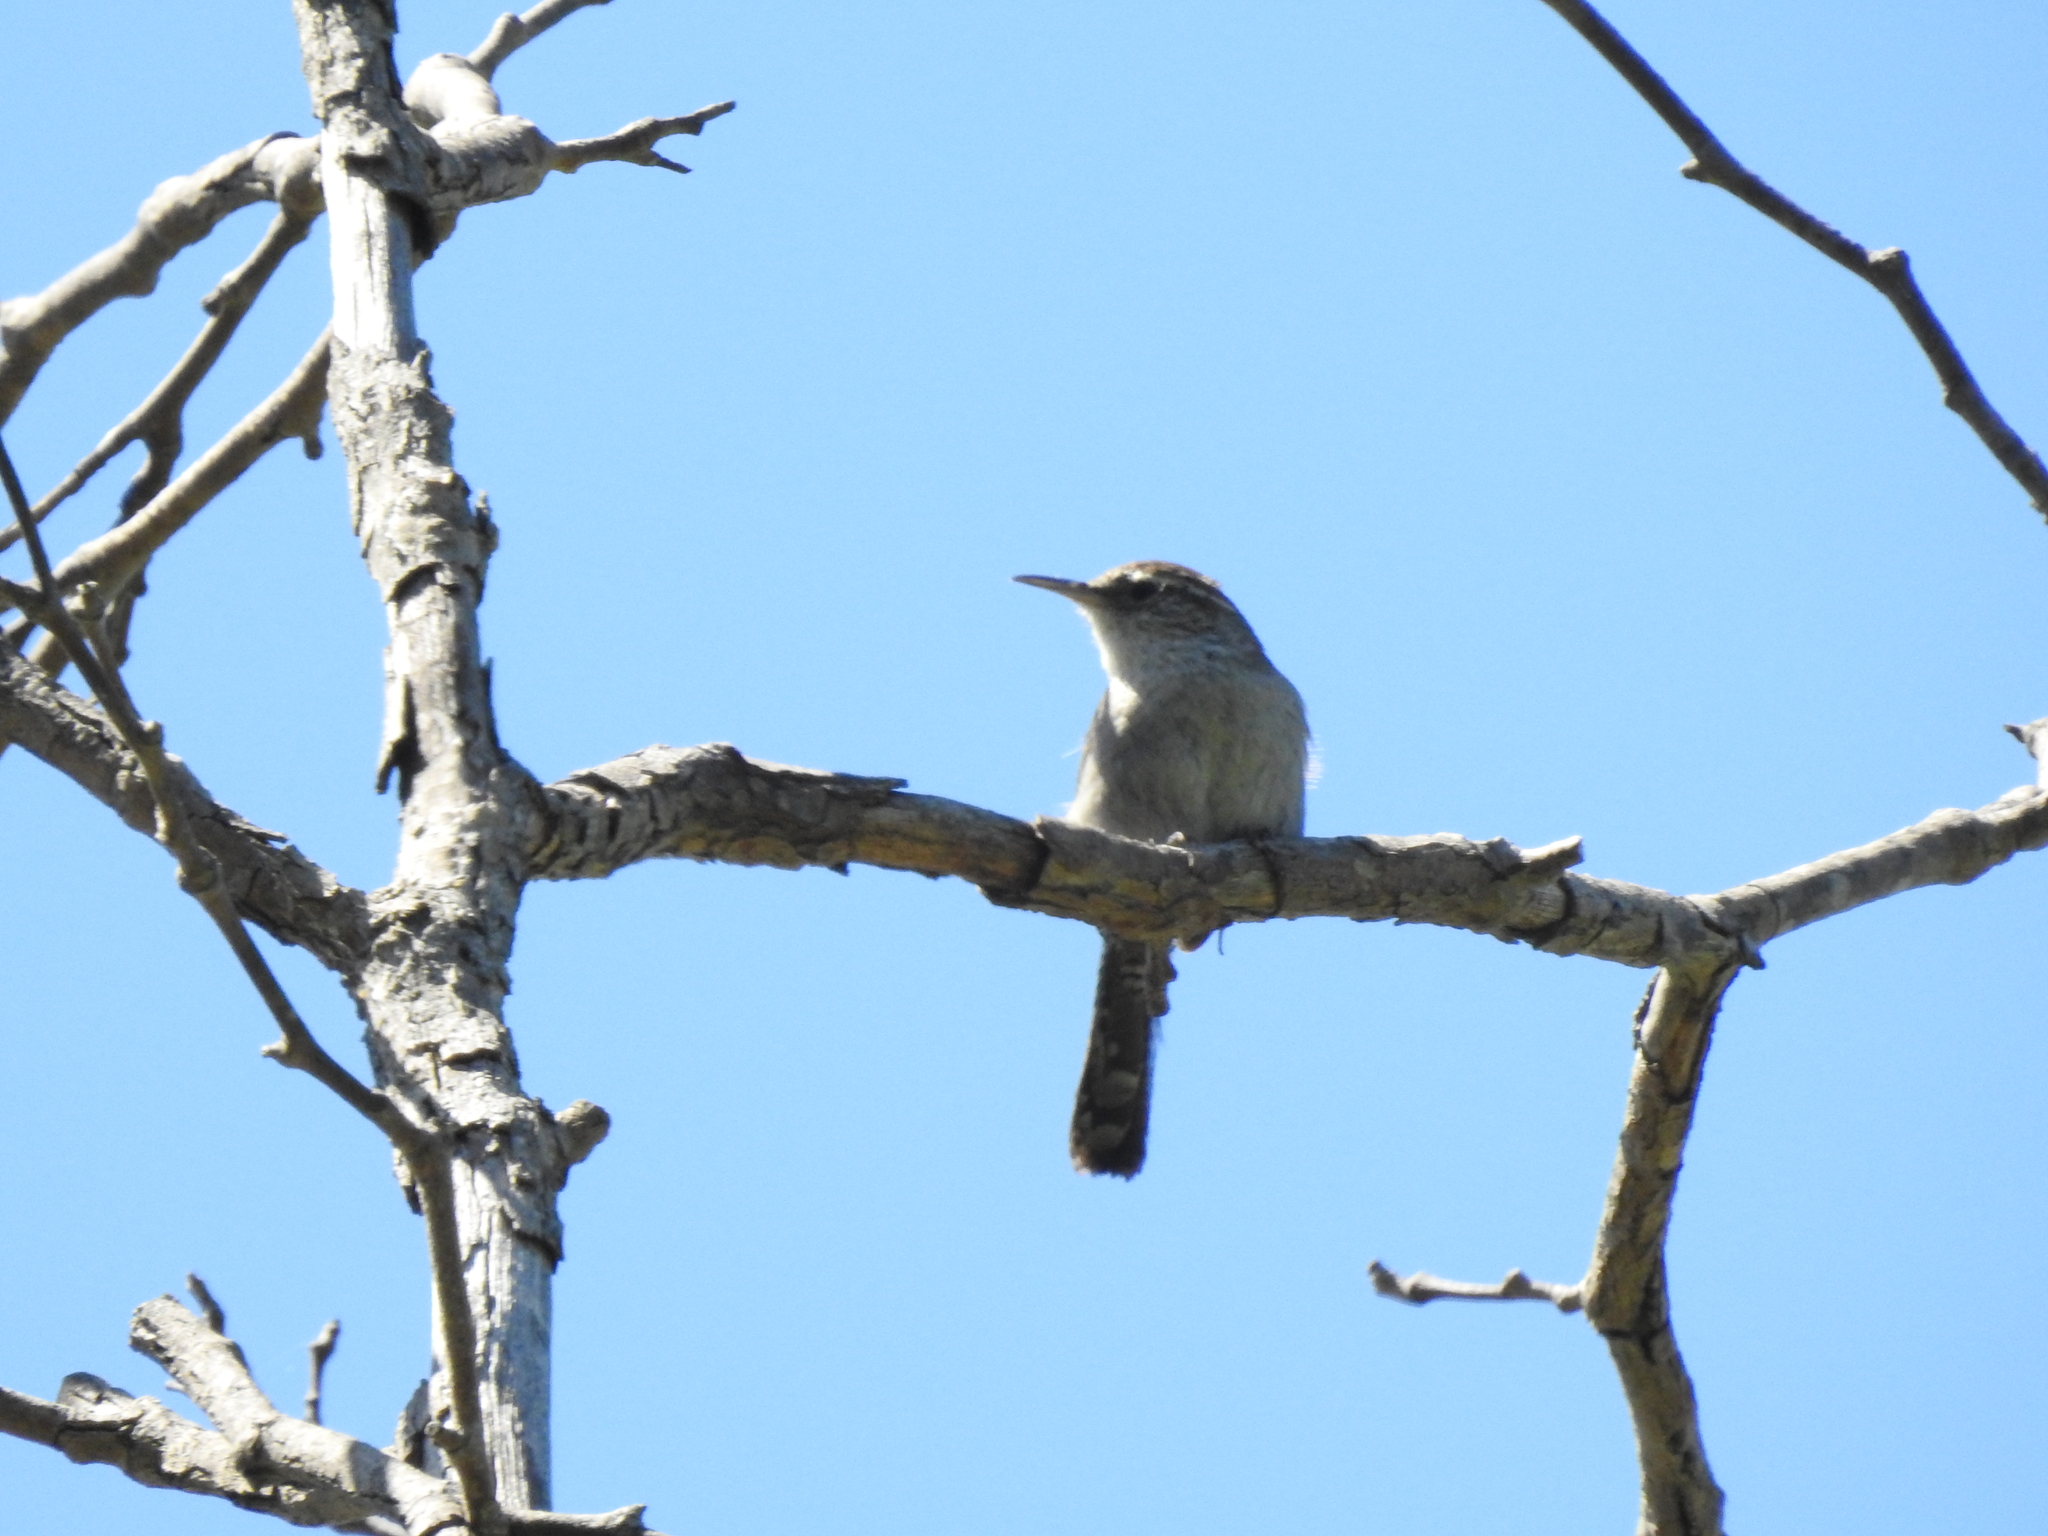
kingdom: Animalia
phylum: Chordata
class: Aves
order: Passeriformes
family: Troglodytidae
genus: Thryomanes
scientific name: Thryomanes bewickii
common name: Bewick's wren
